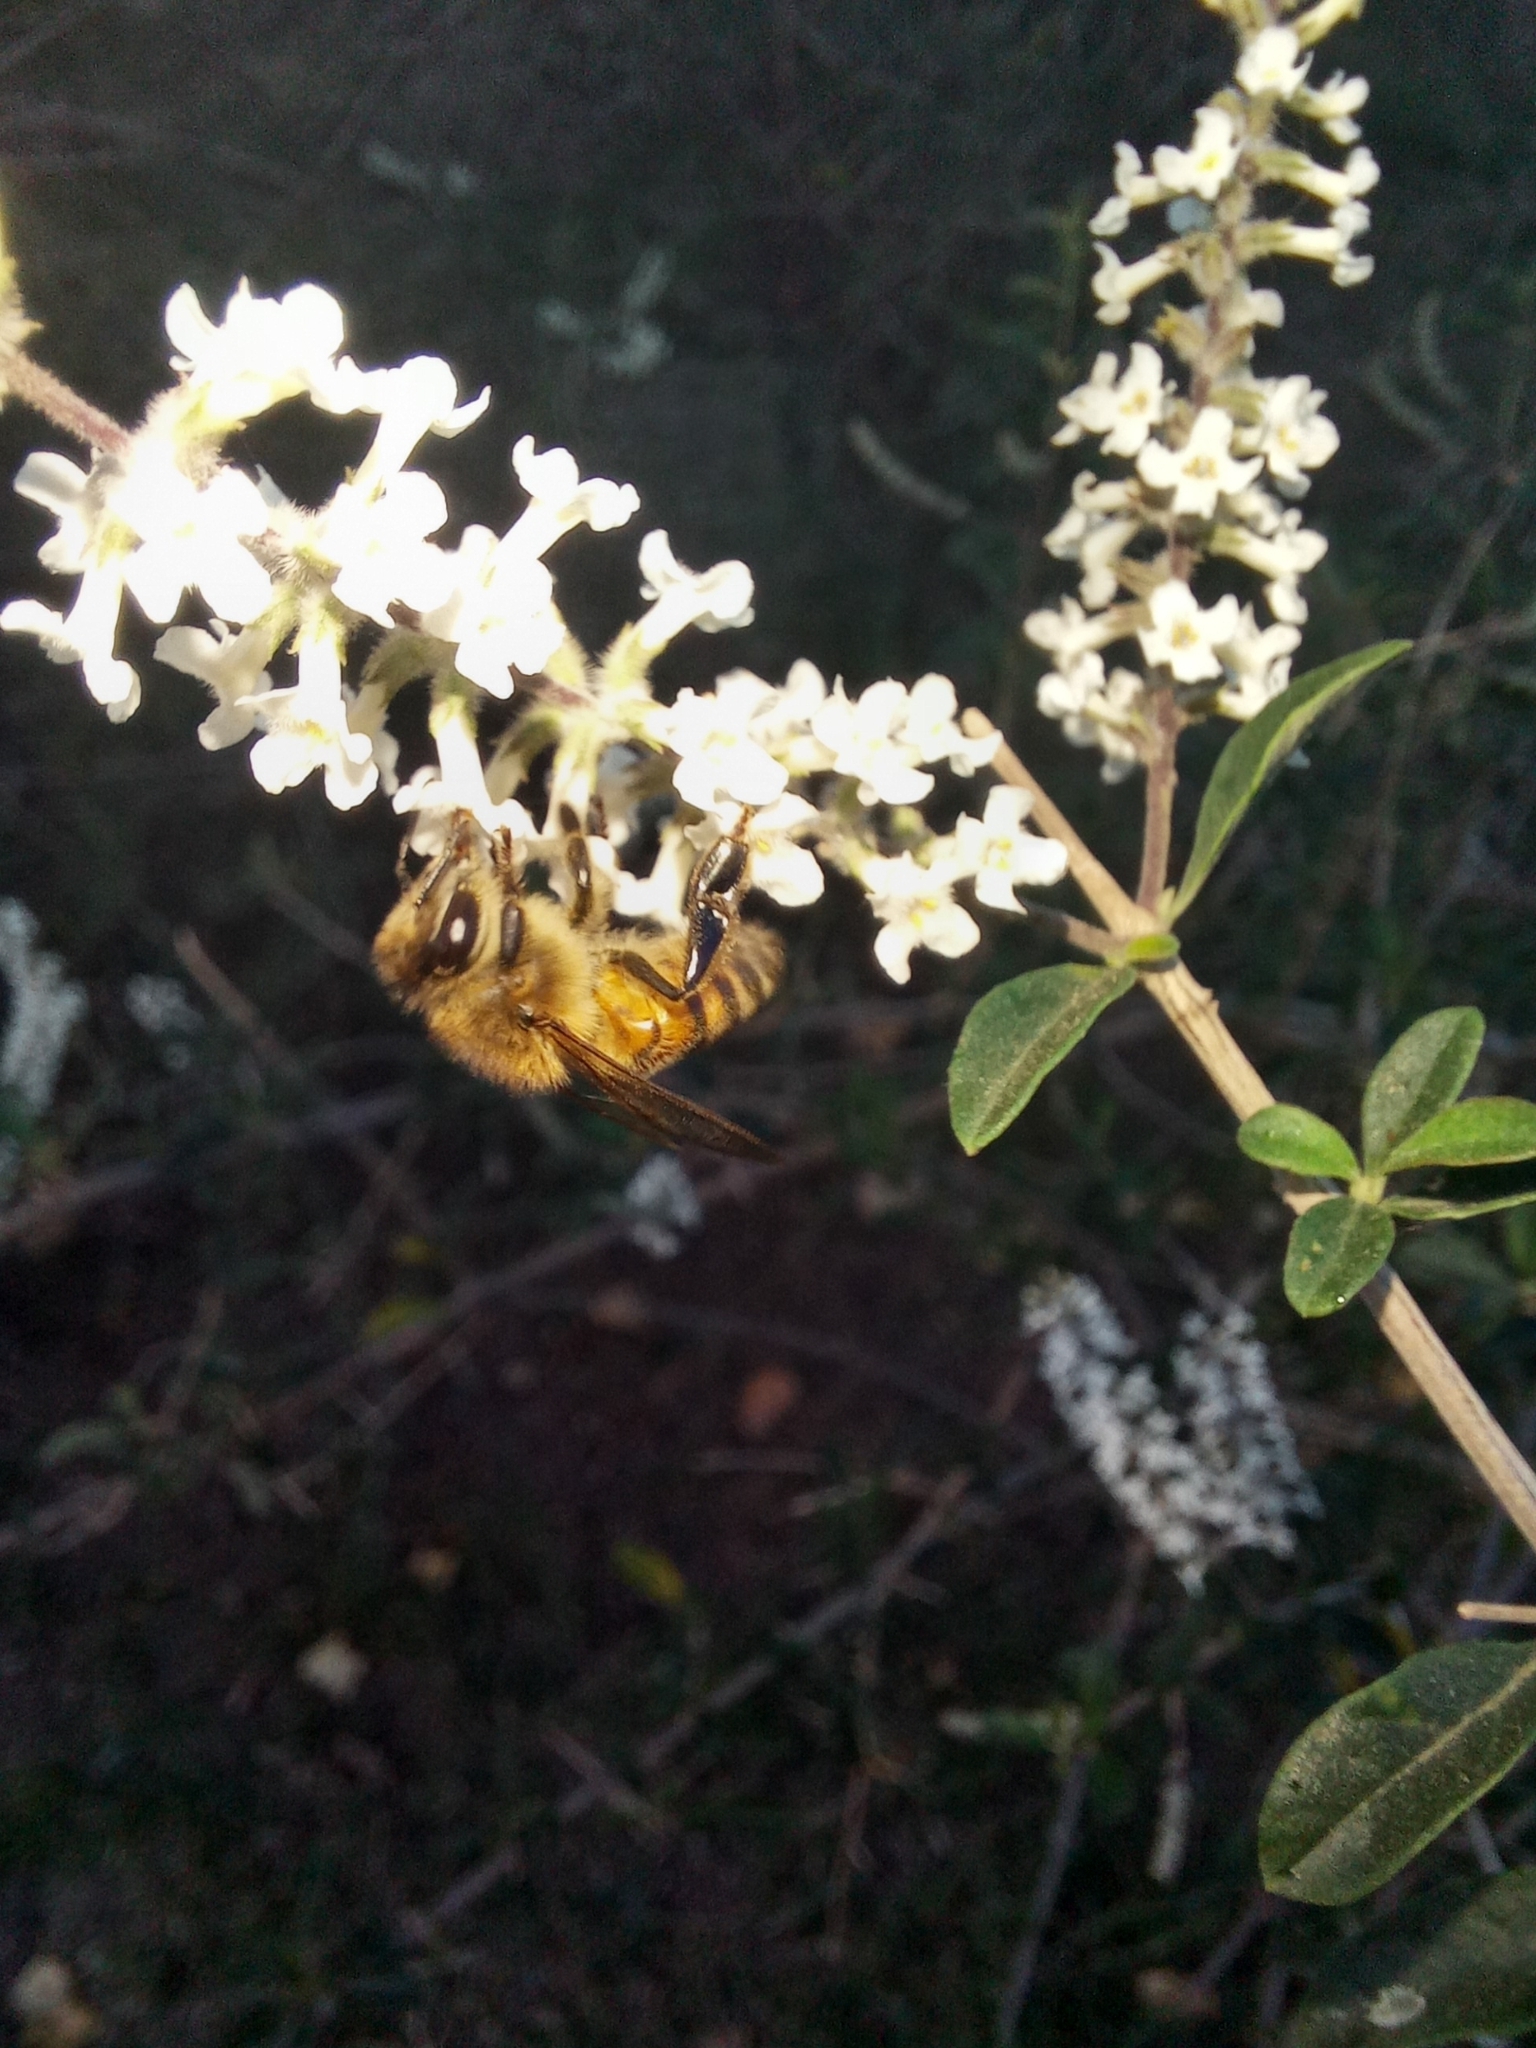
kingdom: Animalia
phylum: Arthropoda
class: Insecta
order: Hymenoptera
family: Apidae
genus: Apis
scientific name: Apis mellifera
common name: Honey bee
